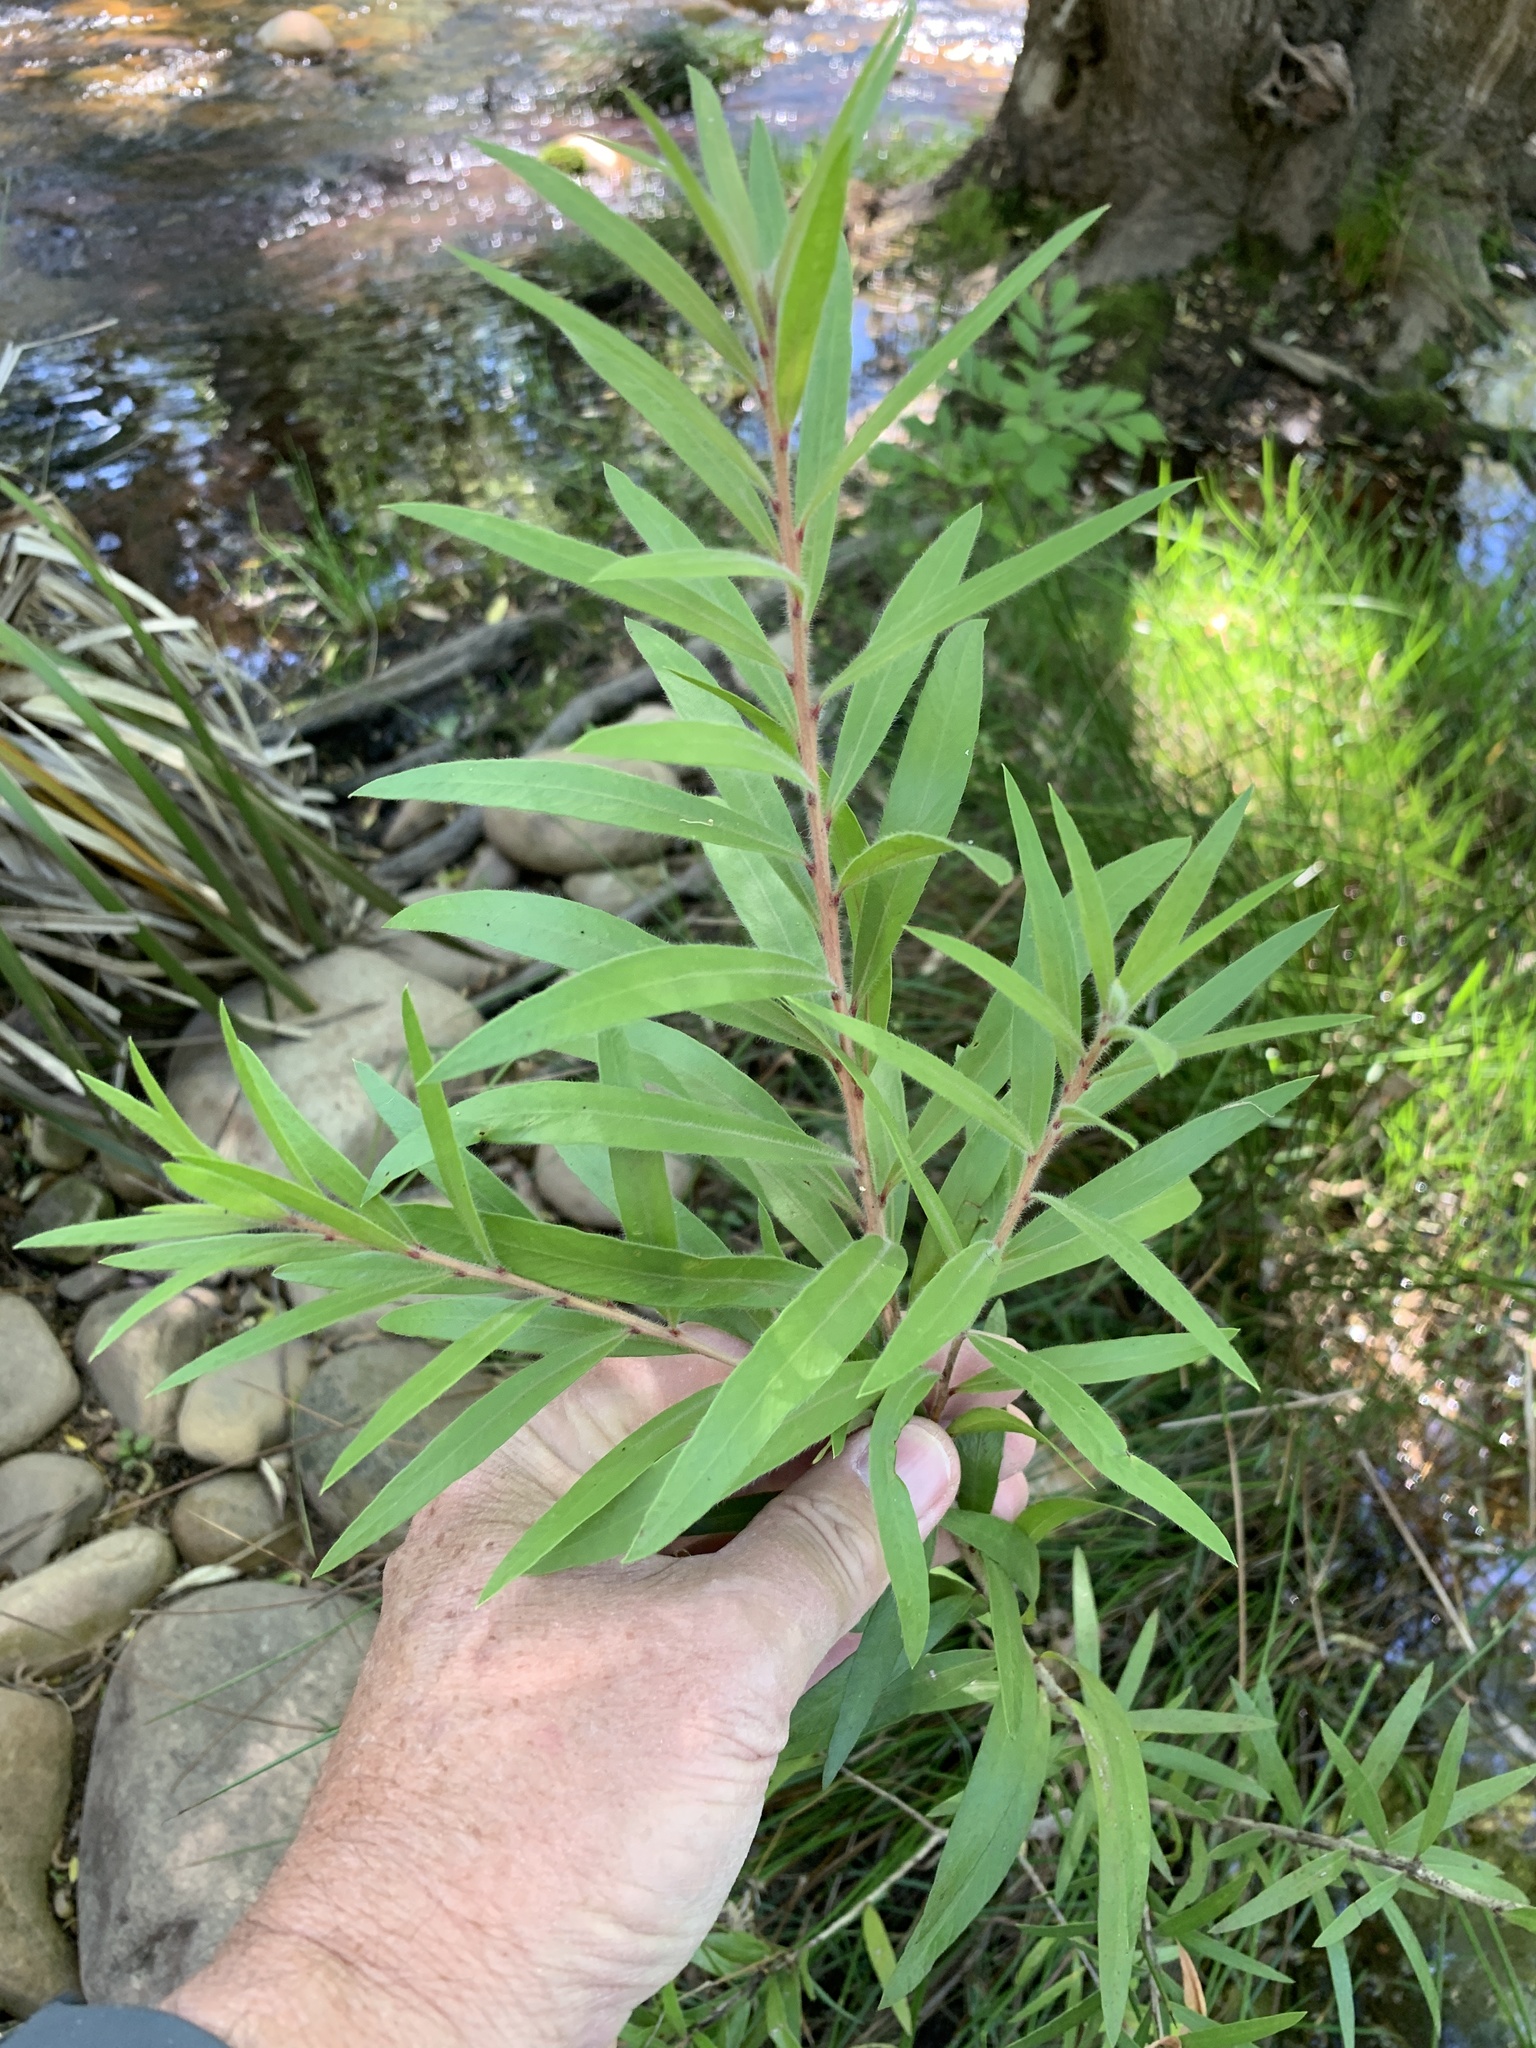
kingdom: Plantae
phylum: Tracheophyta
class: Magnoliopsida
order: Myrtales
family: Myrtaceae
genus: Callistemon
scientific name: Callistemon viminalis
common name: Drooping bottlebrush
